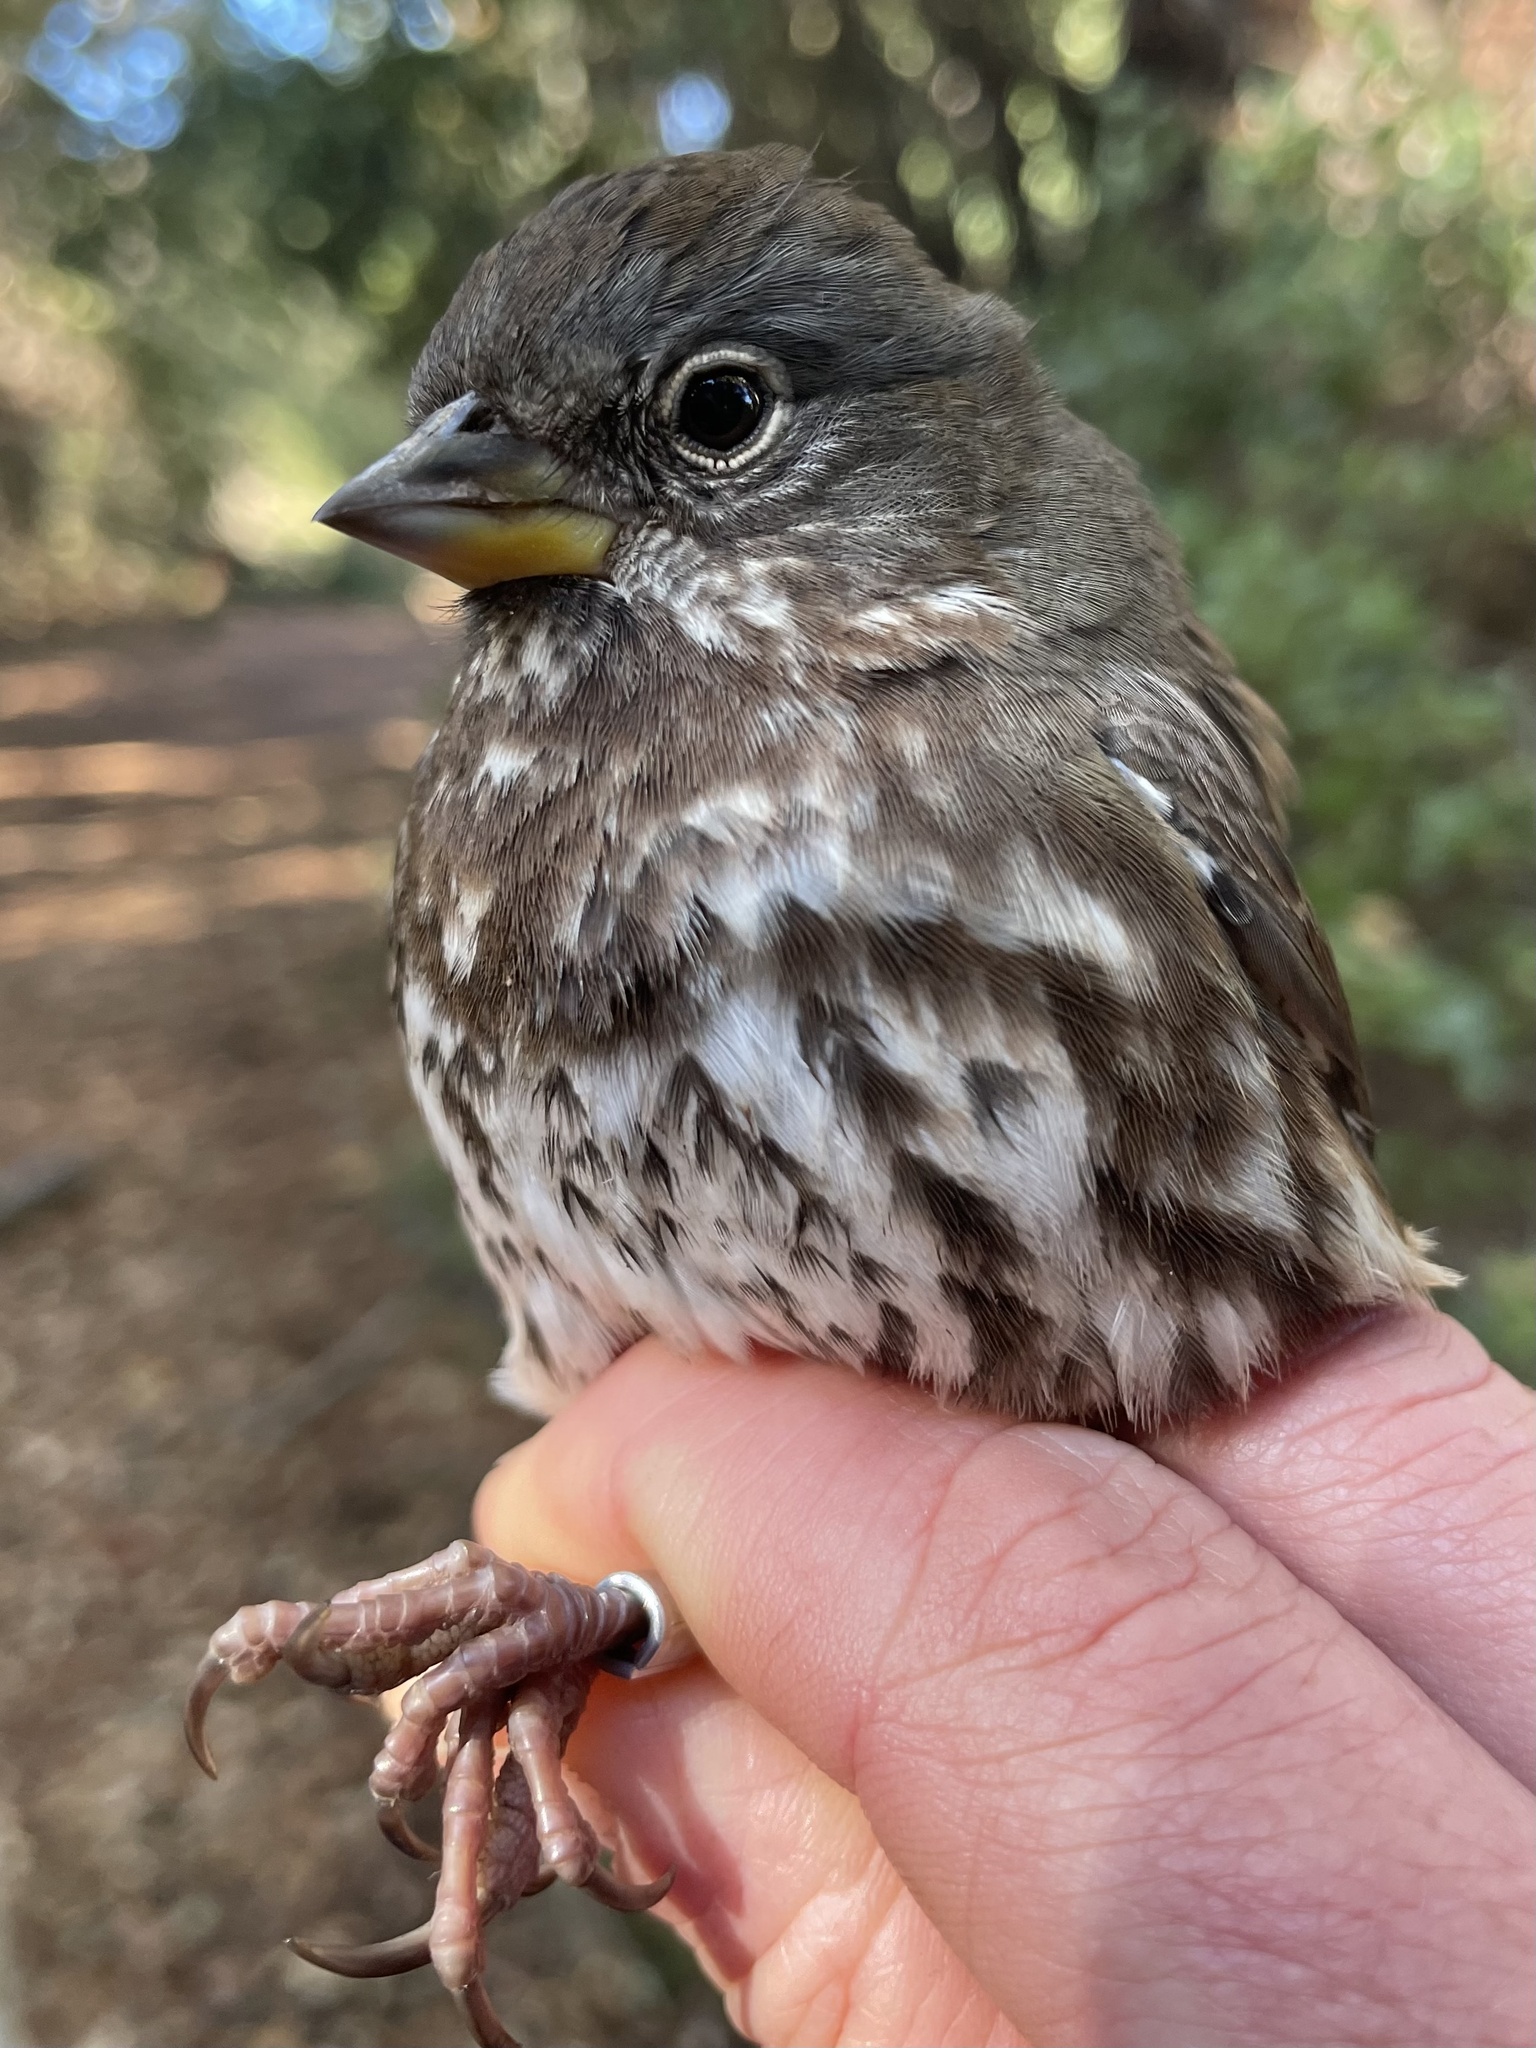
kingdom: Animalia
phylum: Chordata
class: Aves
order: Passeriformes
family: Passerellidae
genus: Passerella
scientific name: Passerella iliaca
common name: Fox sparrow
